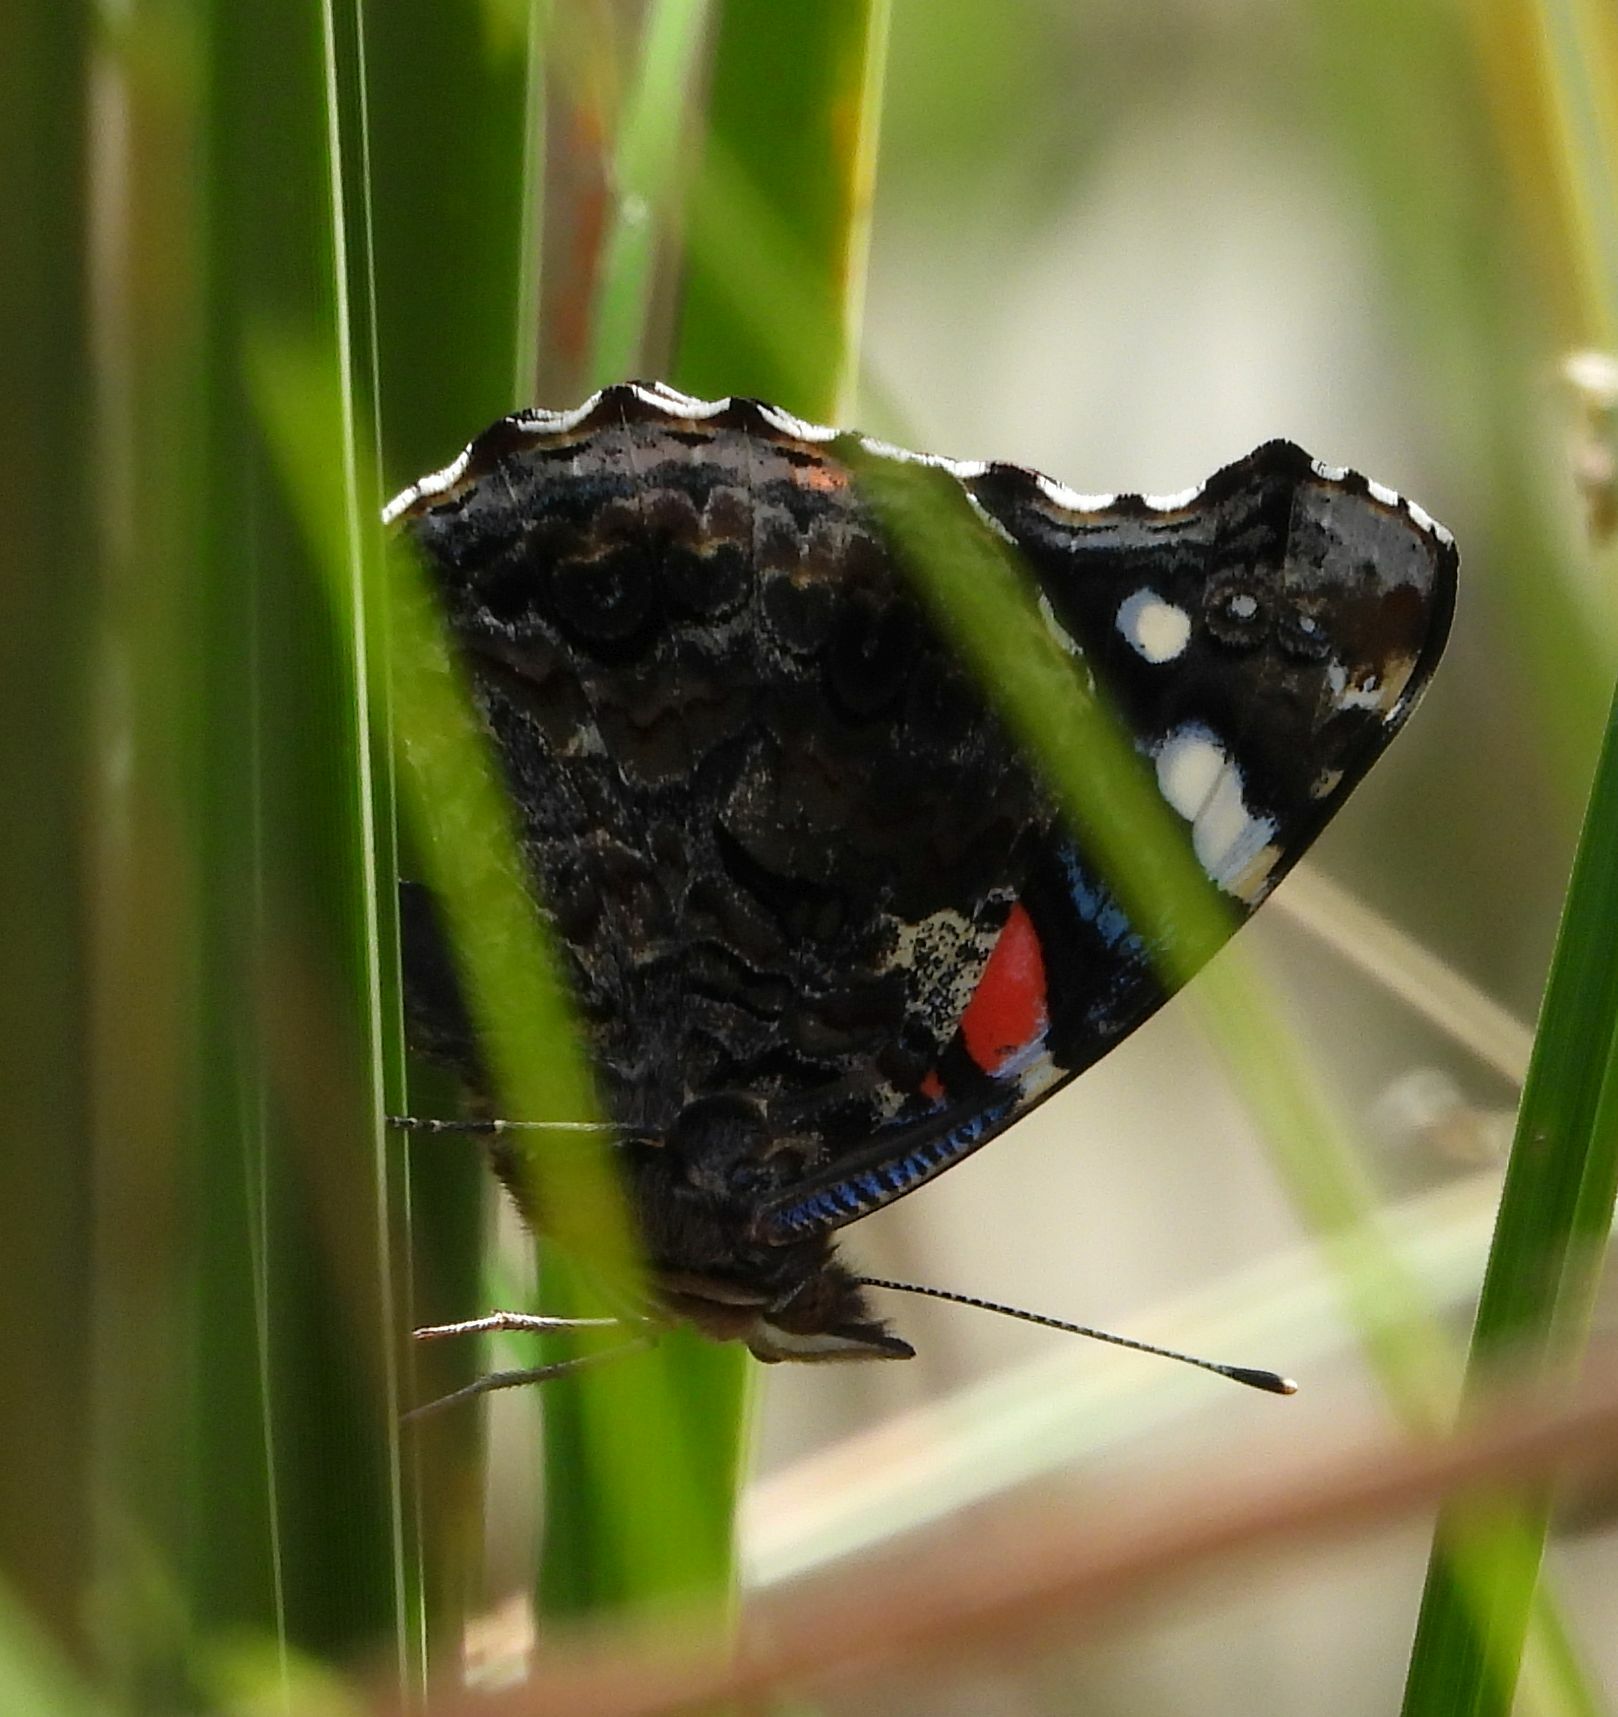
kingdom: Animalia
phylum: Arthropoda
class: Insecta
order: Lepidoptera
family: Nymphalidae
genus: Vanessa
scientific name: Vanessa atalanta
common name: Red admiral
